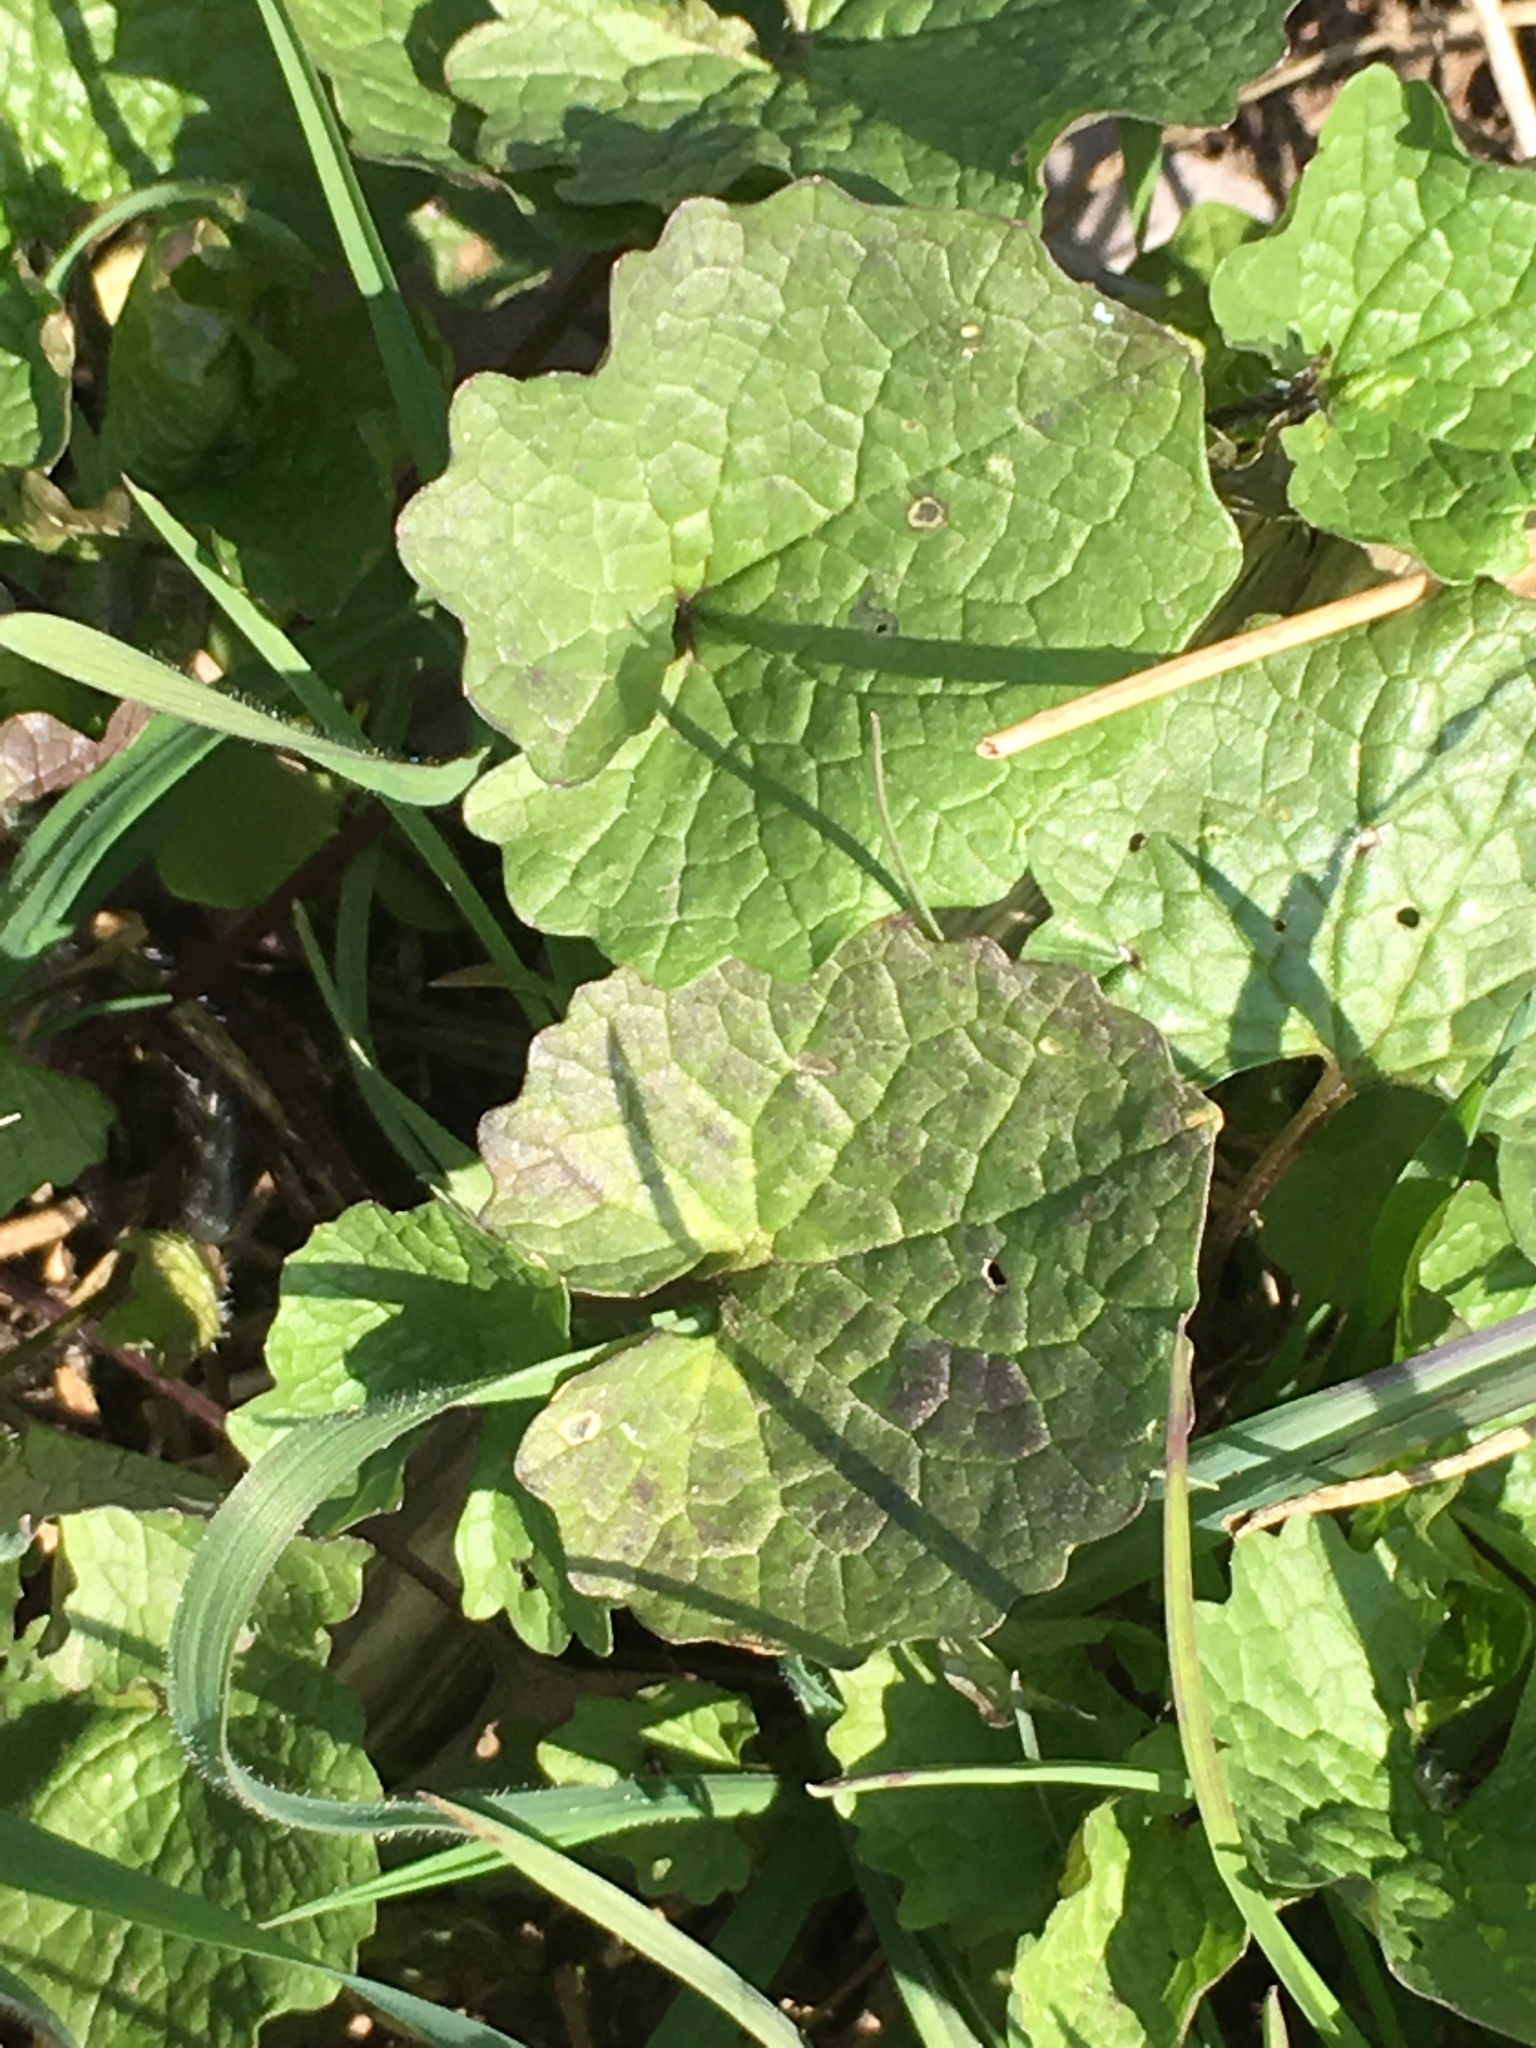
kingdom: Plantae
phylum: Tracheophyta
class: Magnoliopsida
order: Brassicales
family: Brassicaceae
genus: Alliaria
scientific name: Alliaria petiolata
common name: Garlic mustard
